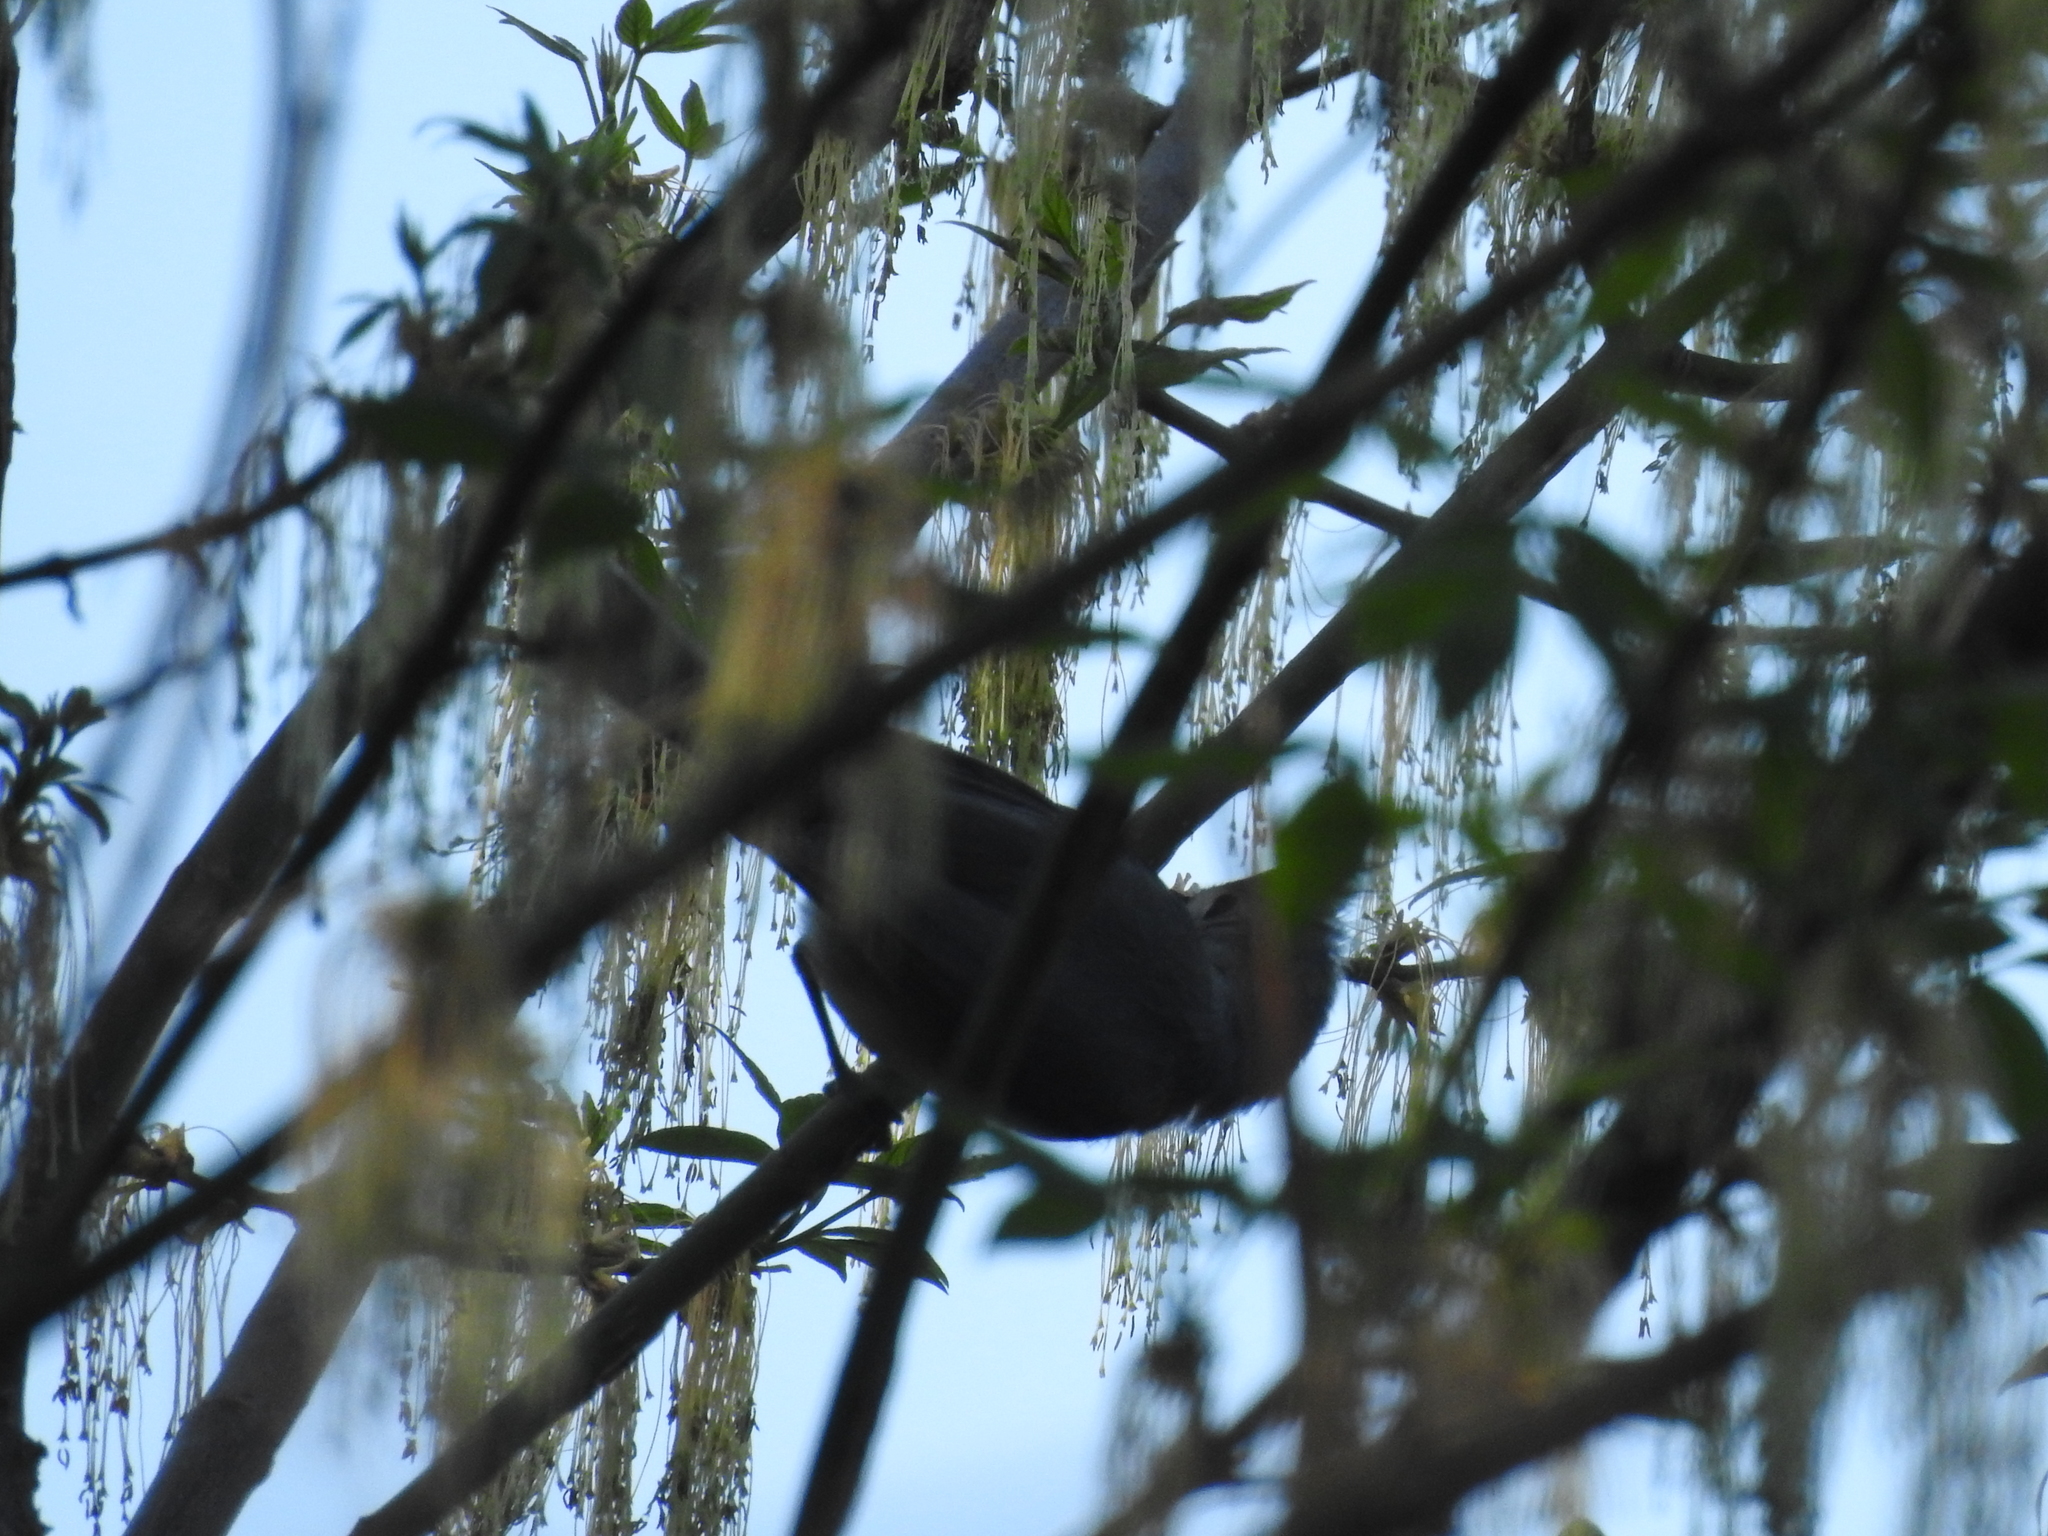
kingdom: Animalia
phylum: Chordata
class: Aves
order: Passeriformes
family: Paridae
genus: Baeolophus
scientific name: Baeolophus bicolor
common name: Tufted titmouse
